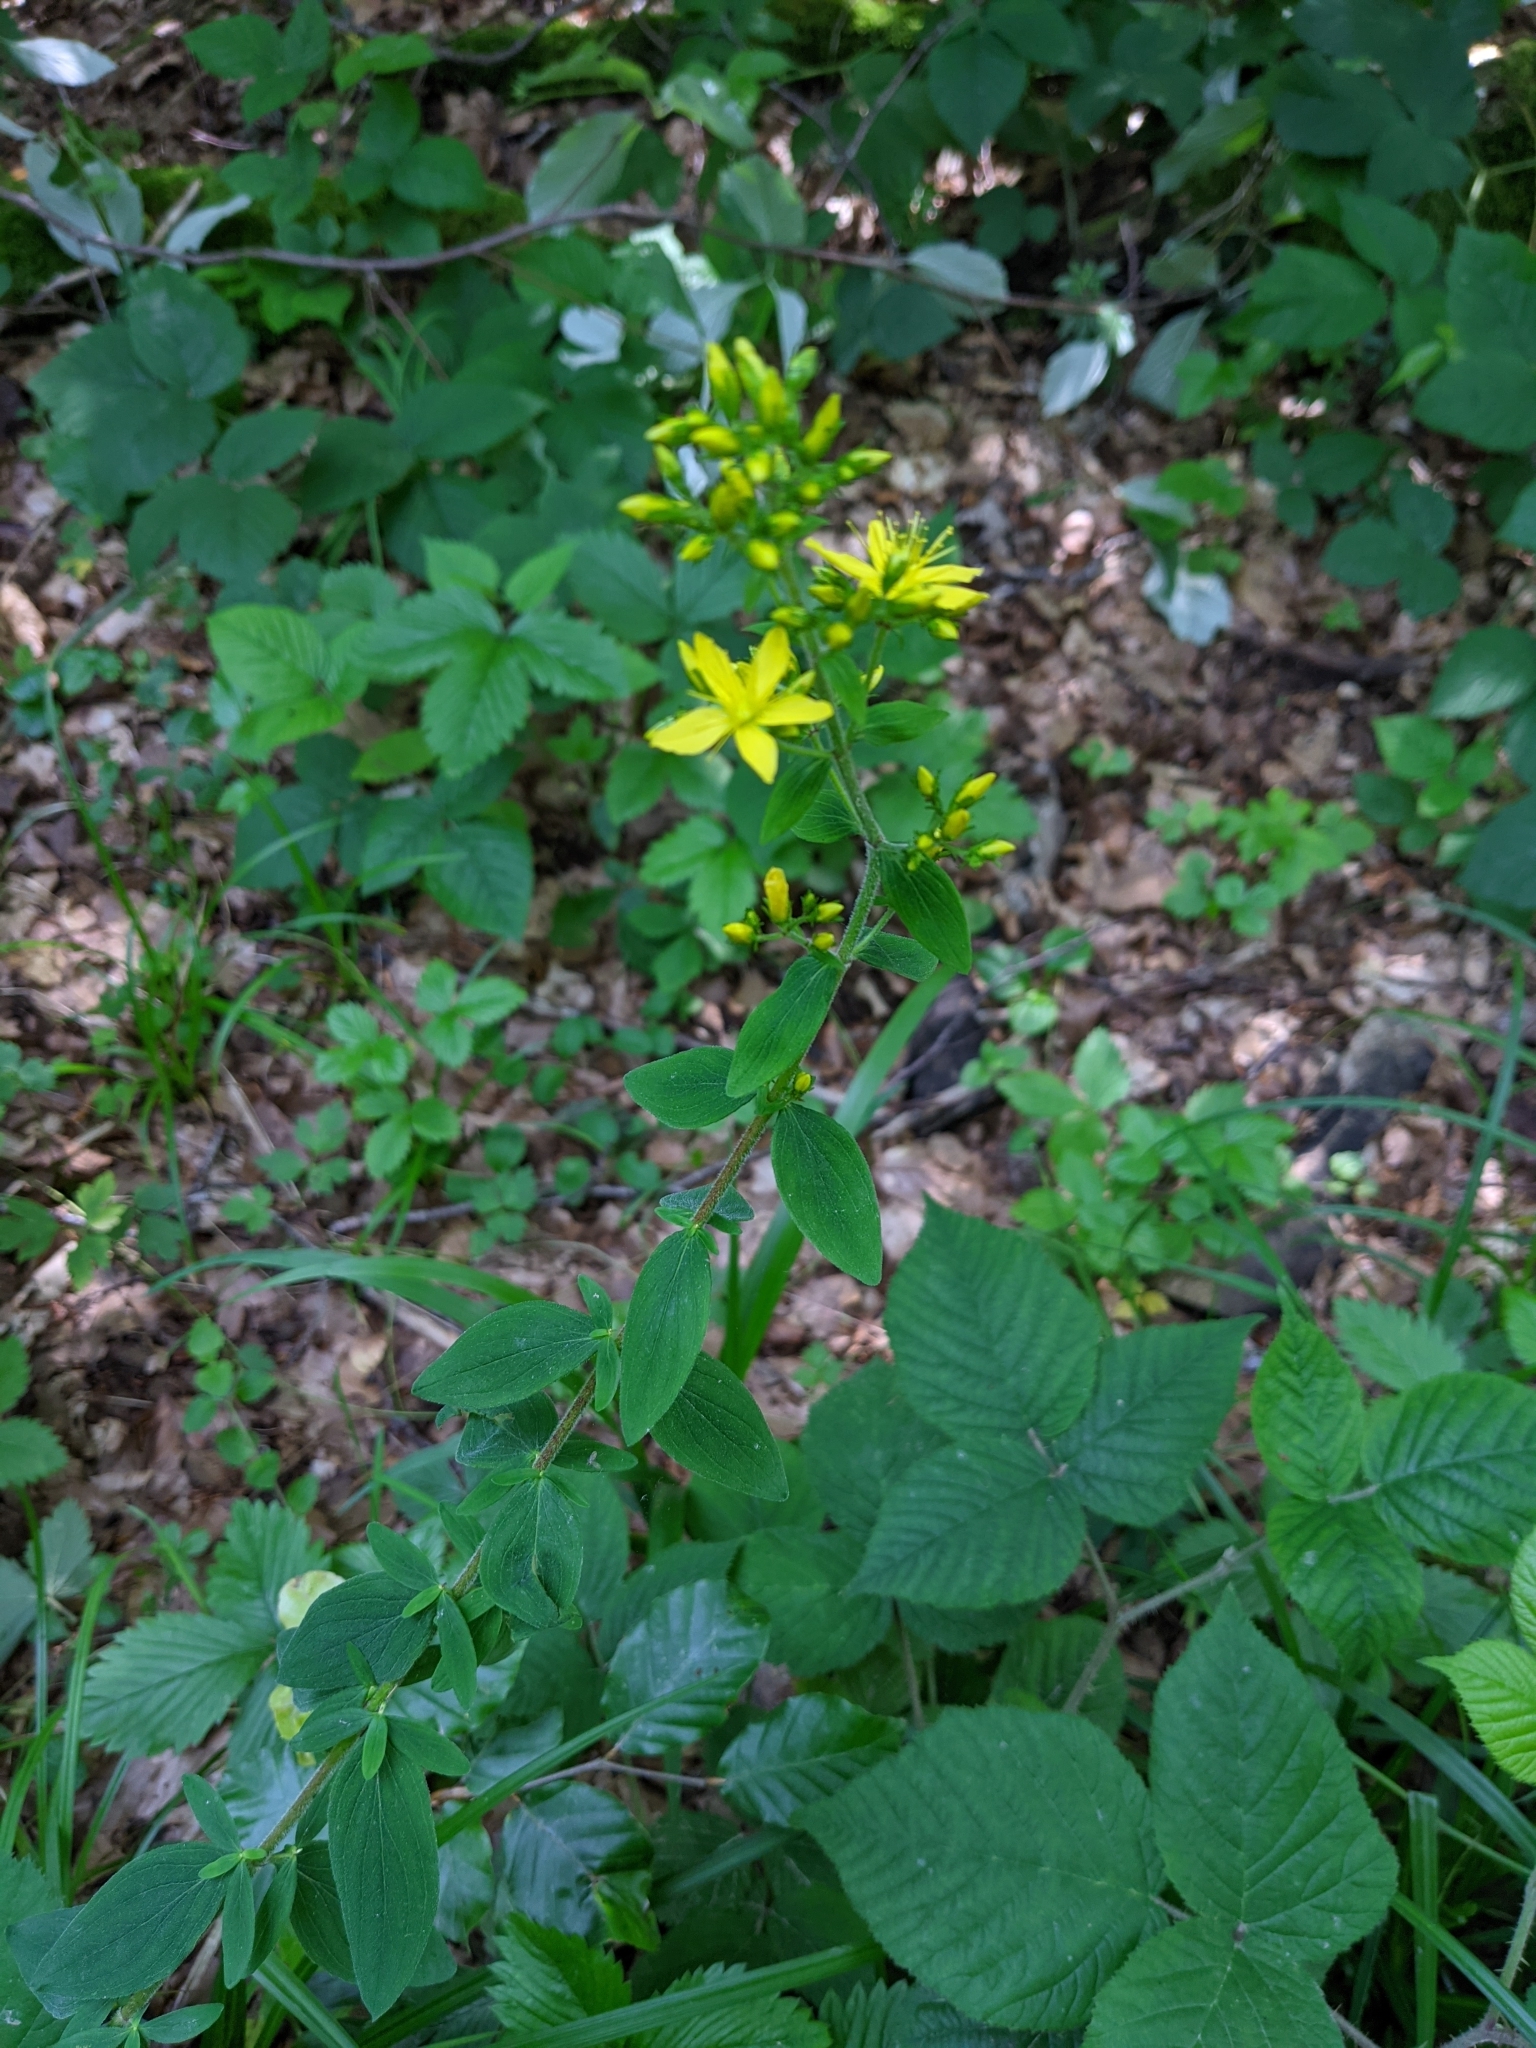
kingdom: Plantae
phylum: Tracheophyta
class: Magnoliopsida
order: Malpighiales
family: Hypericaceae
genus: Hypericum
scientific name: Hypericum hirsutum
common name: Hairy st. john's-wort
